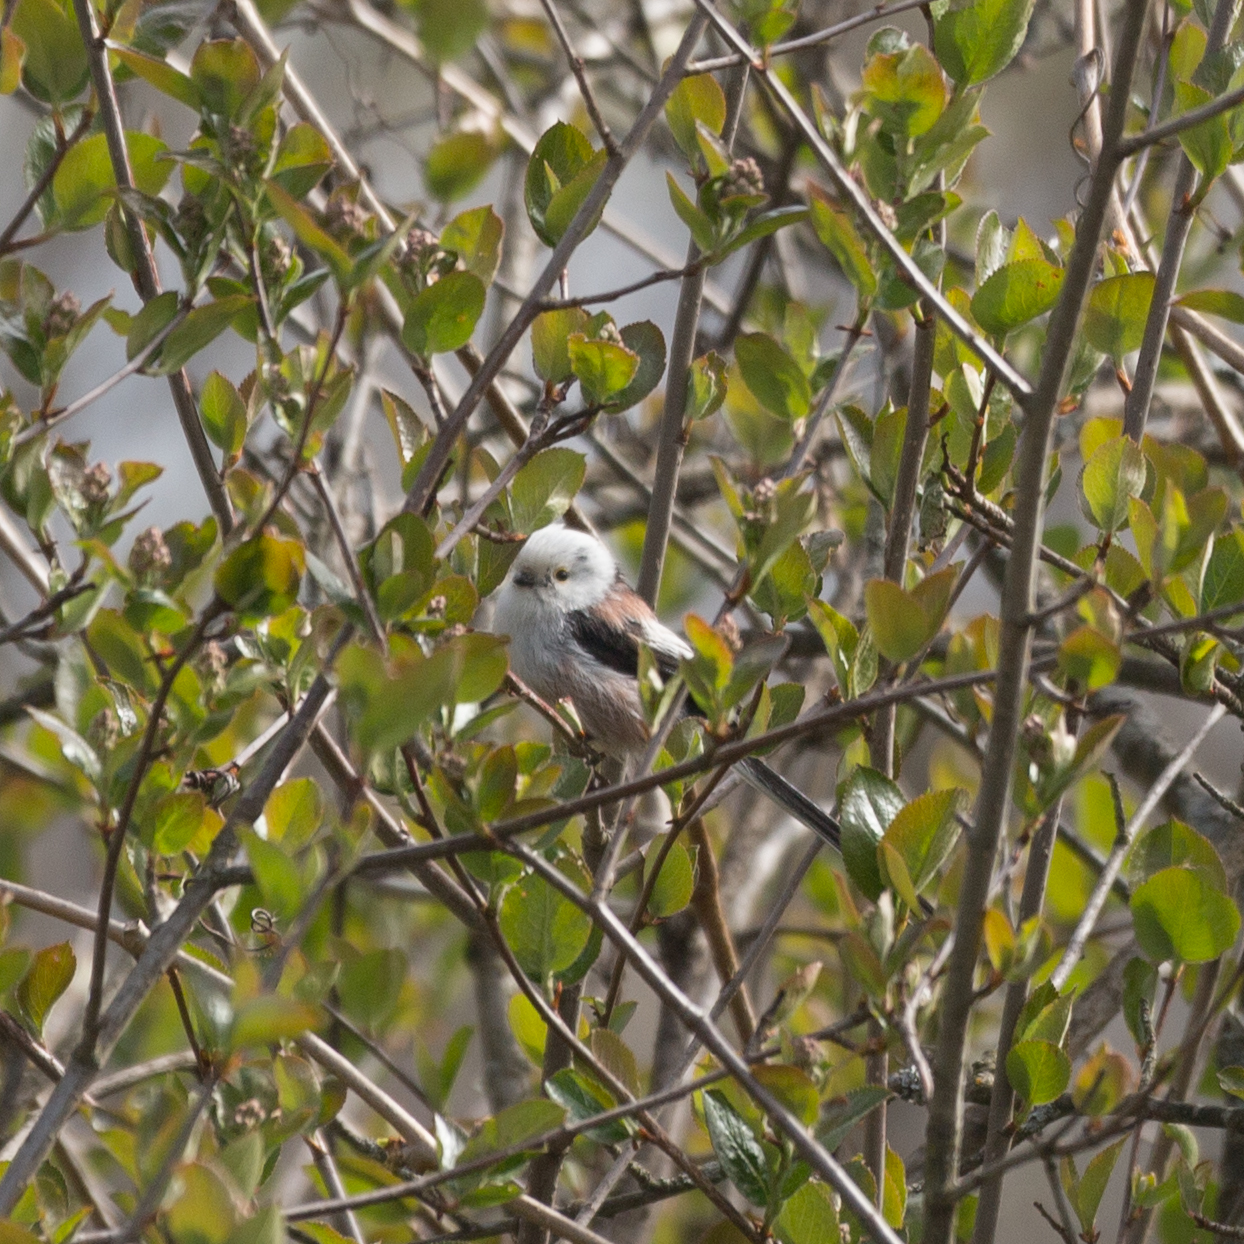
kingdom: Animalia
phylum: Chordata
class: Aves
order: Passeriformes
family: Aegithalidae
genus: Aegithalos
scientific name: Aegithalos caudatus
